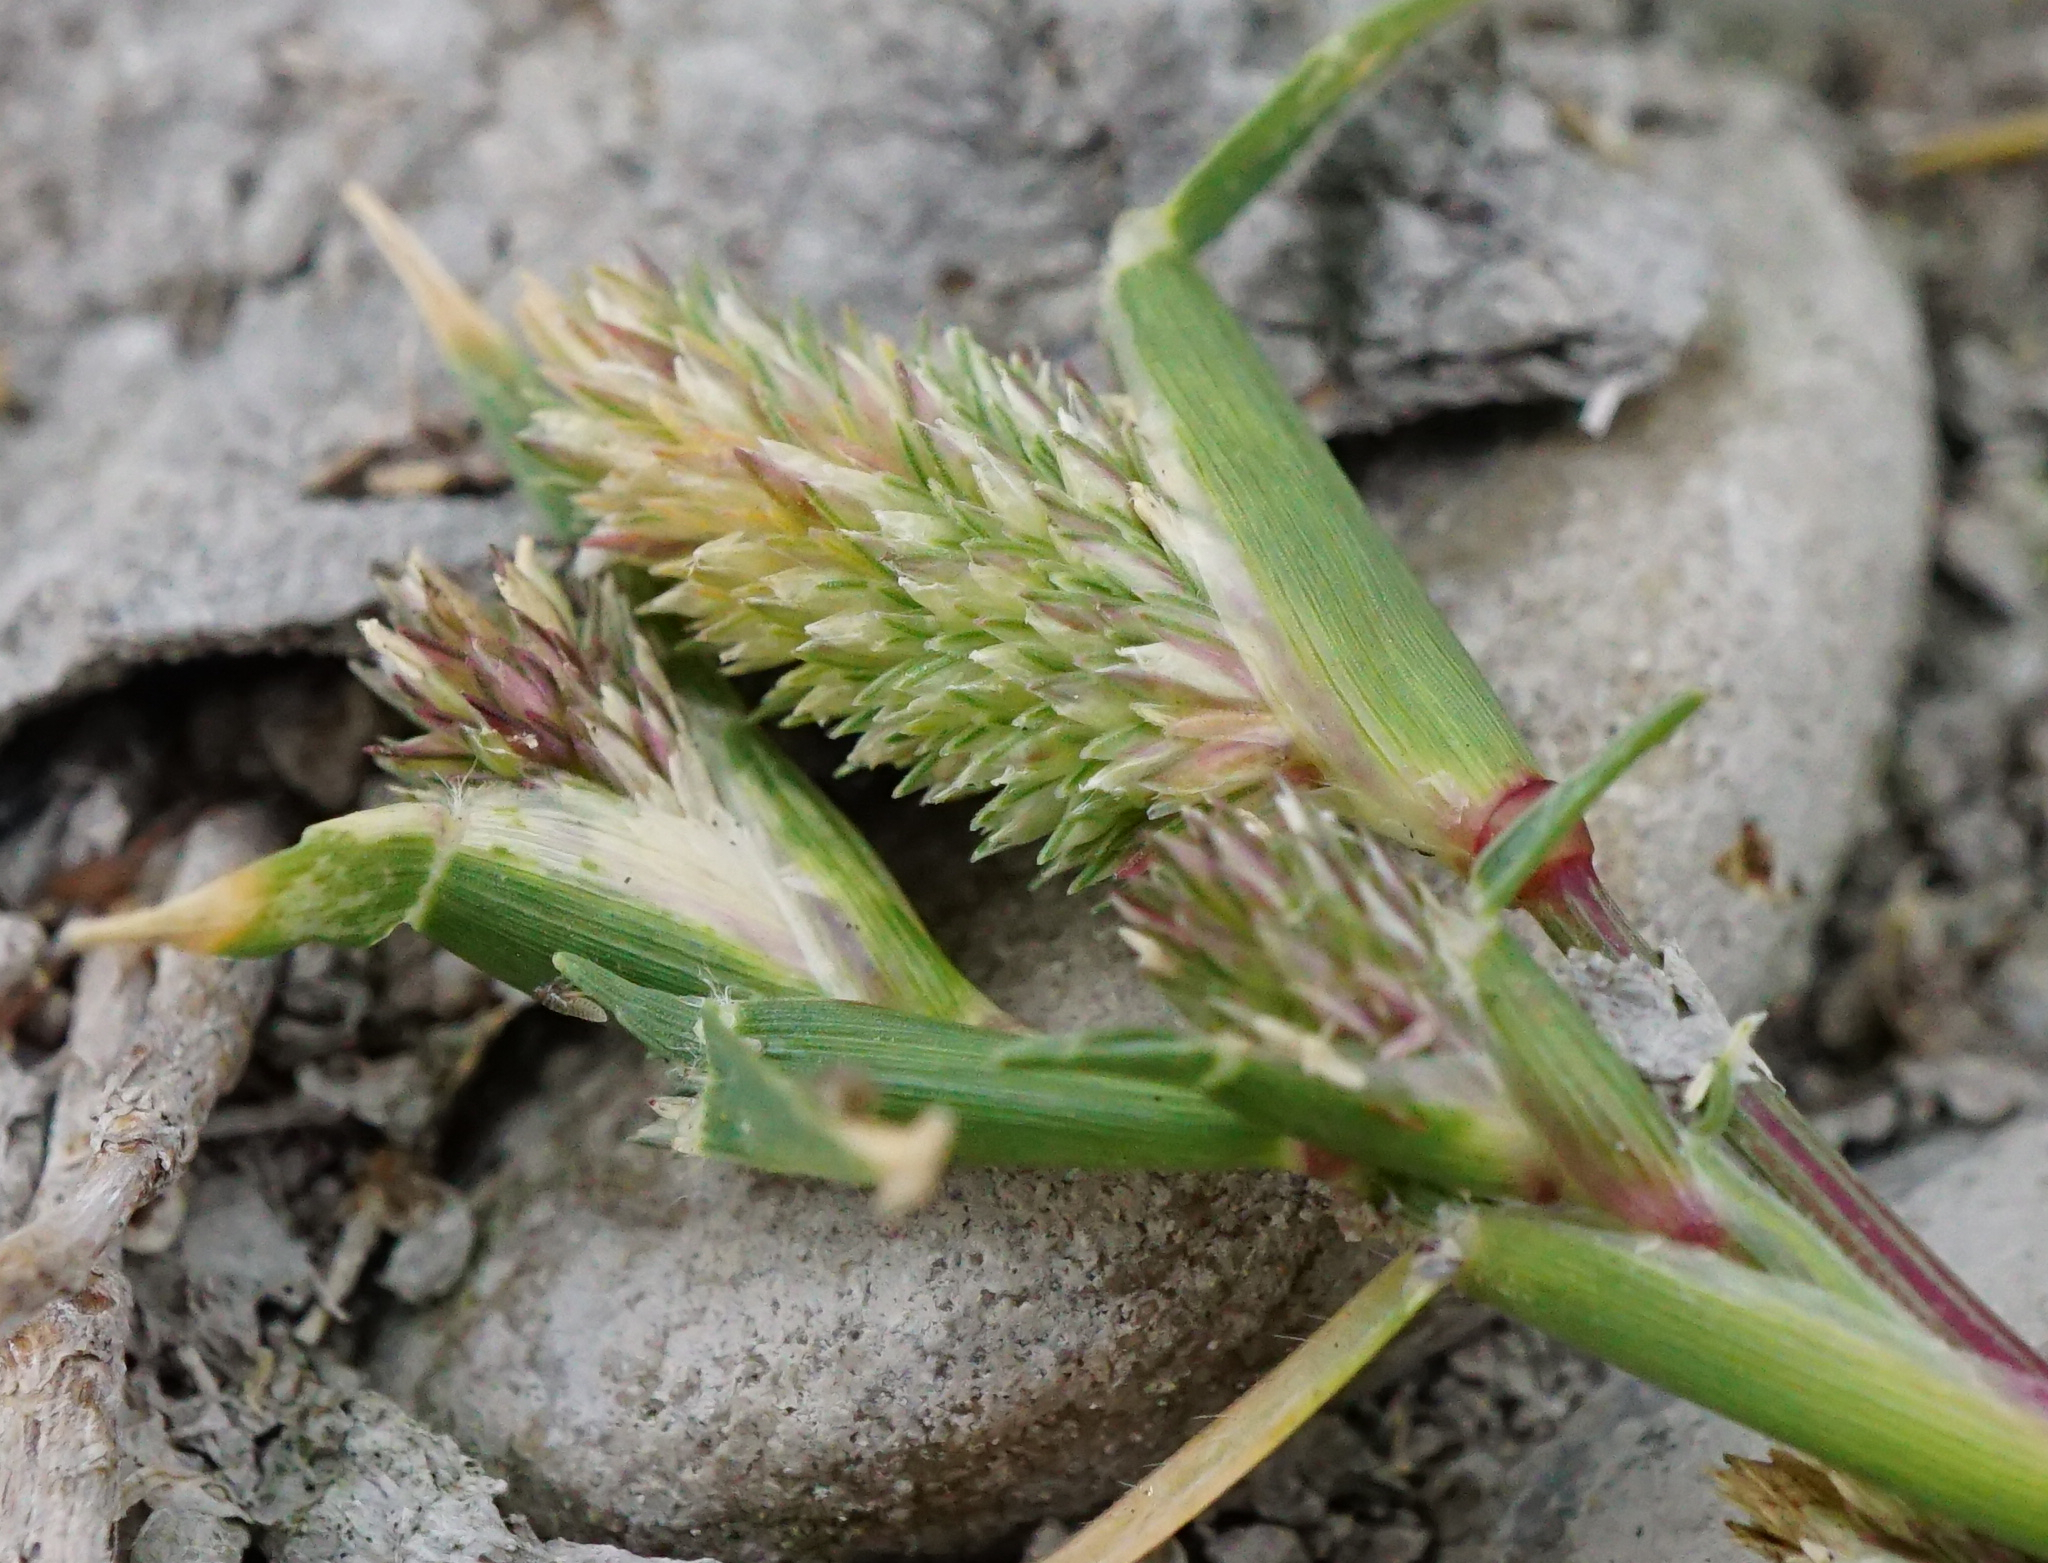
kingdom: Plantae
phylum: Tracheophyta
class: Liliopsida
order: Poales
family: Poaceae
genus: Sporobolus
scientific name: Sporobolus schoenoides
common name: Rush-like timothy
